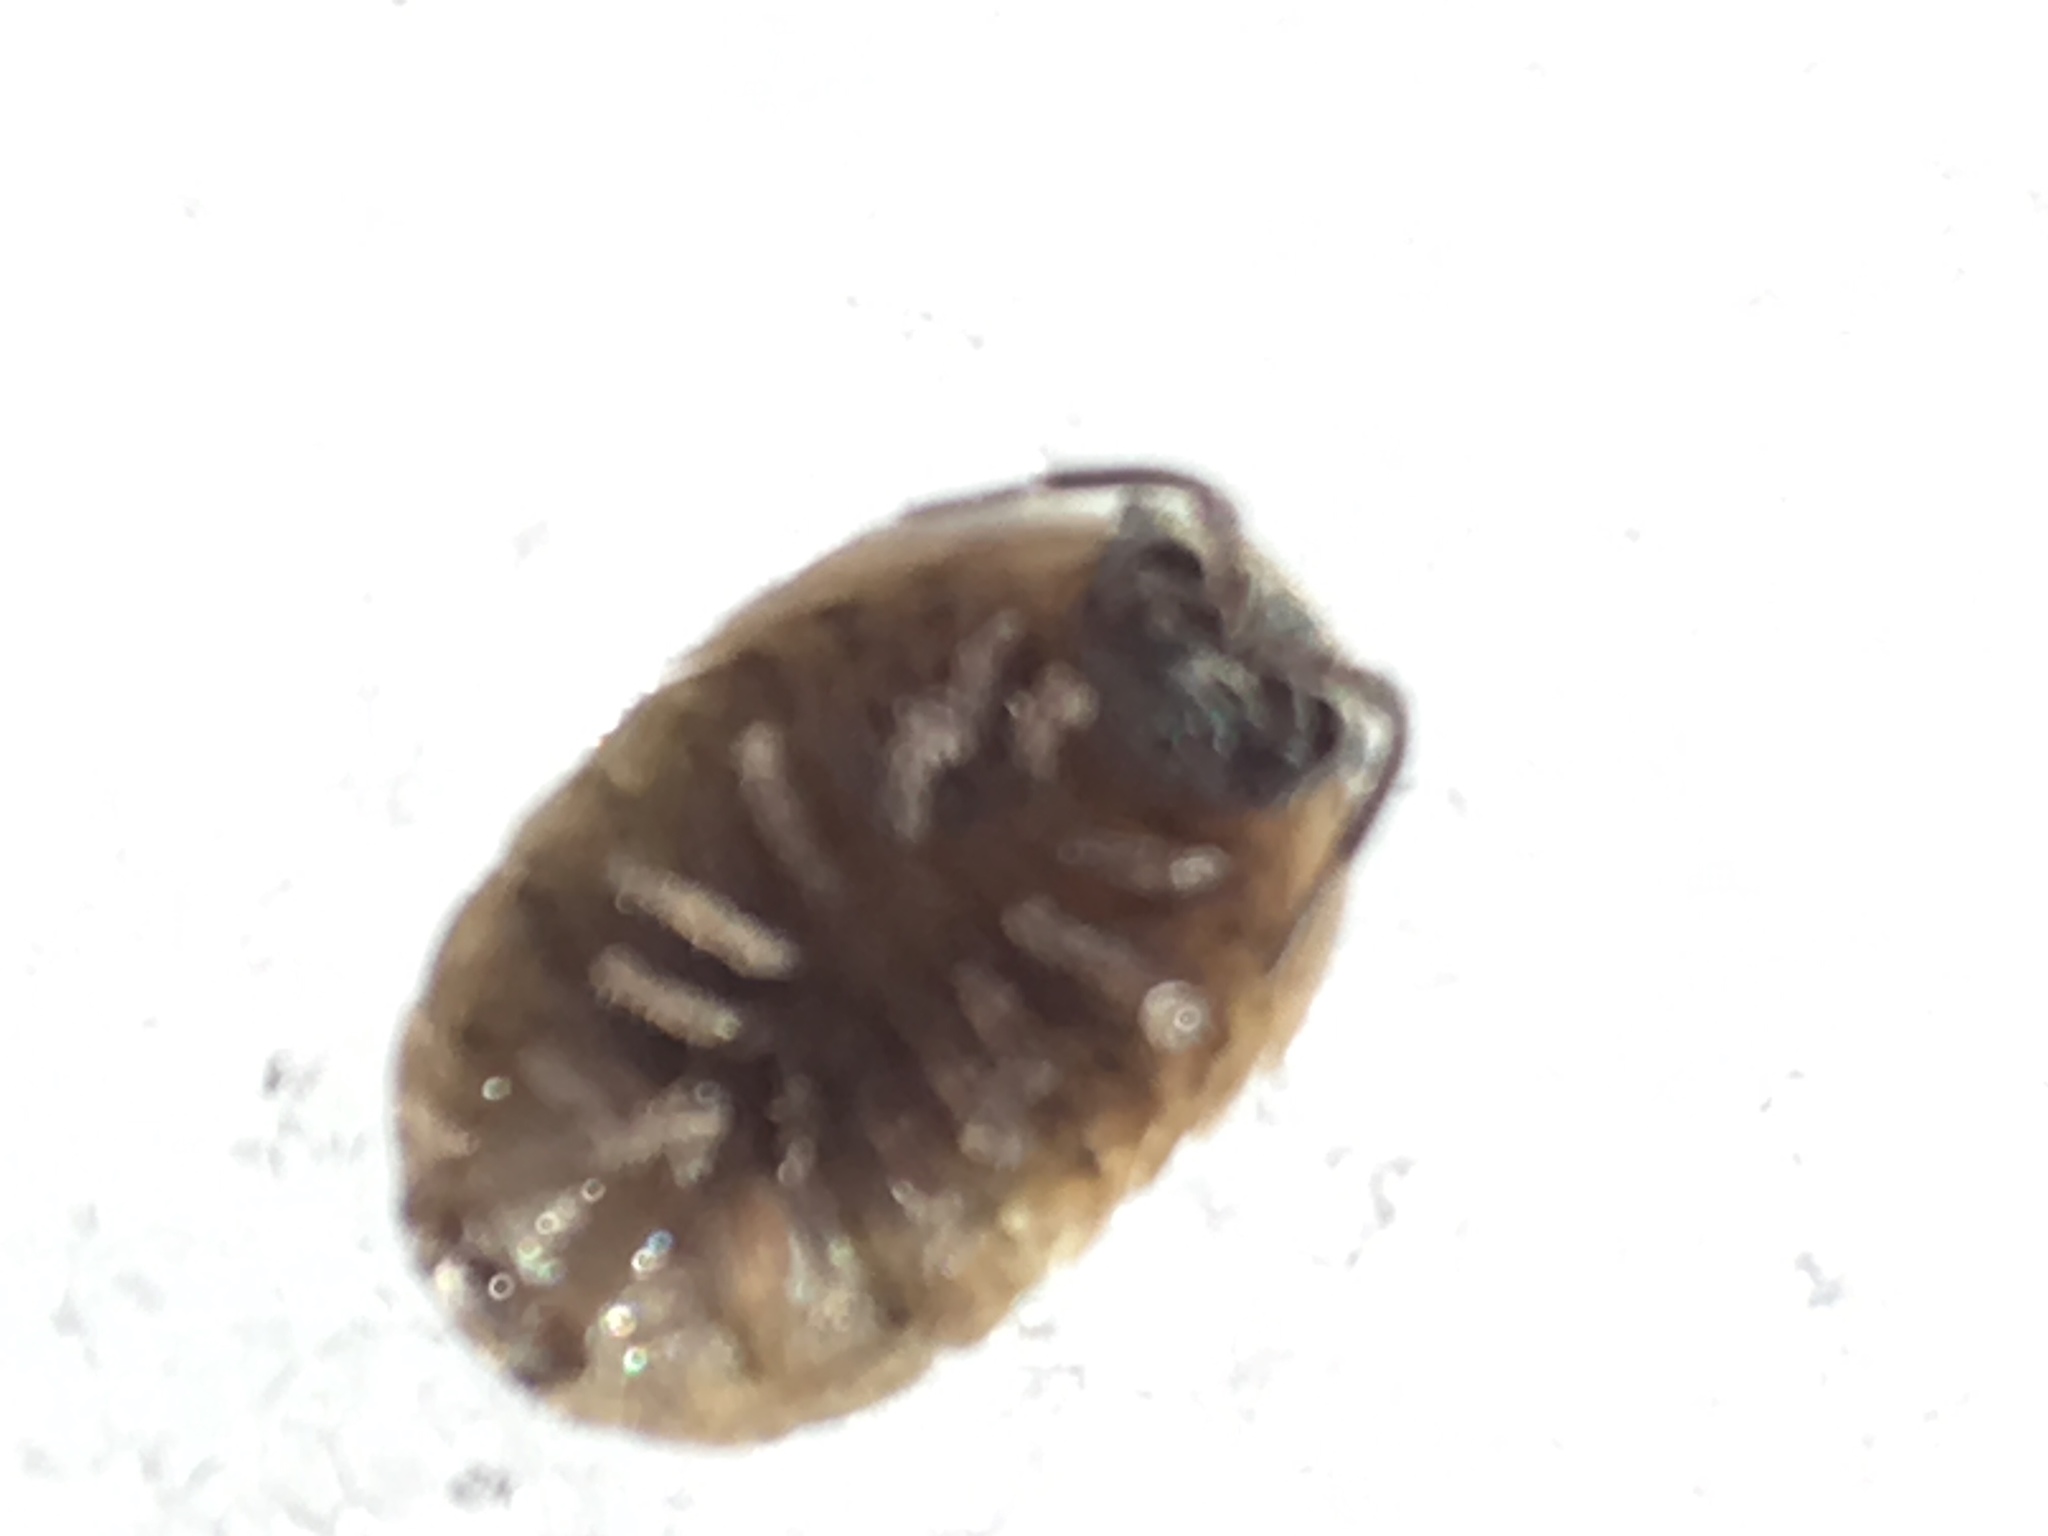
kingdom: Animalia
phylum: Arthropoda
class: Malacostraca
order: Isopoda
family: Armadillidiidae
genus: Armadillidium
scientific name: Armadillidium vulgare
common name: Common pill woodlouse
